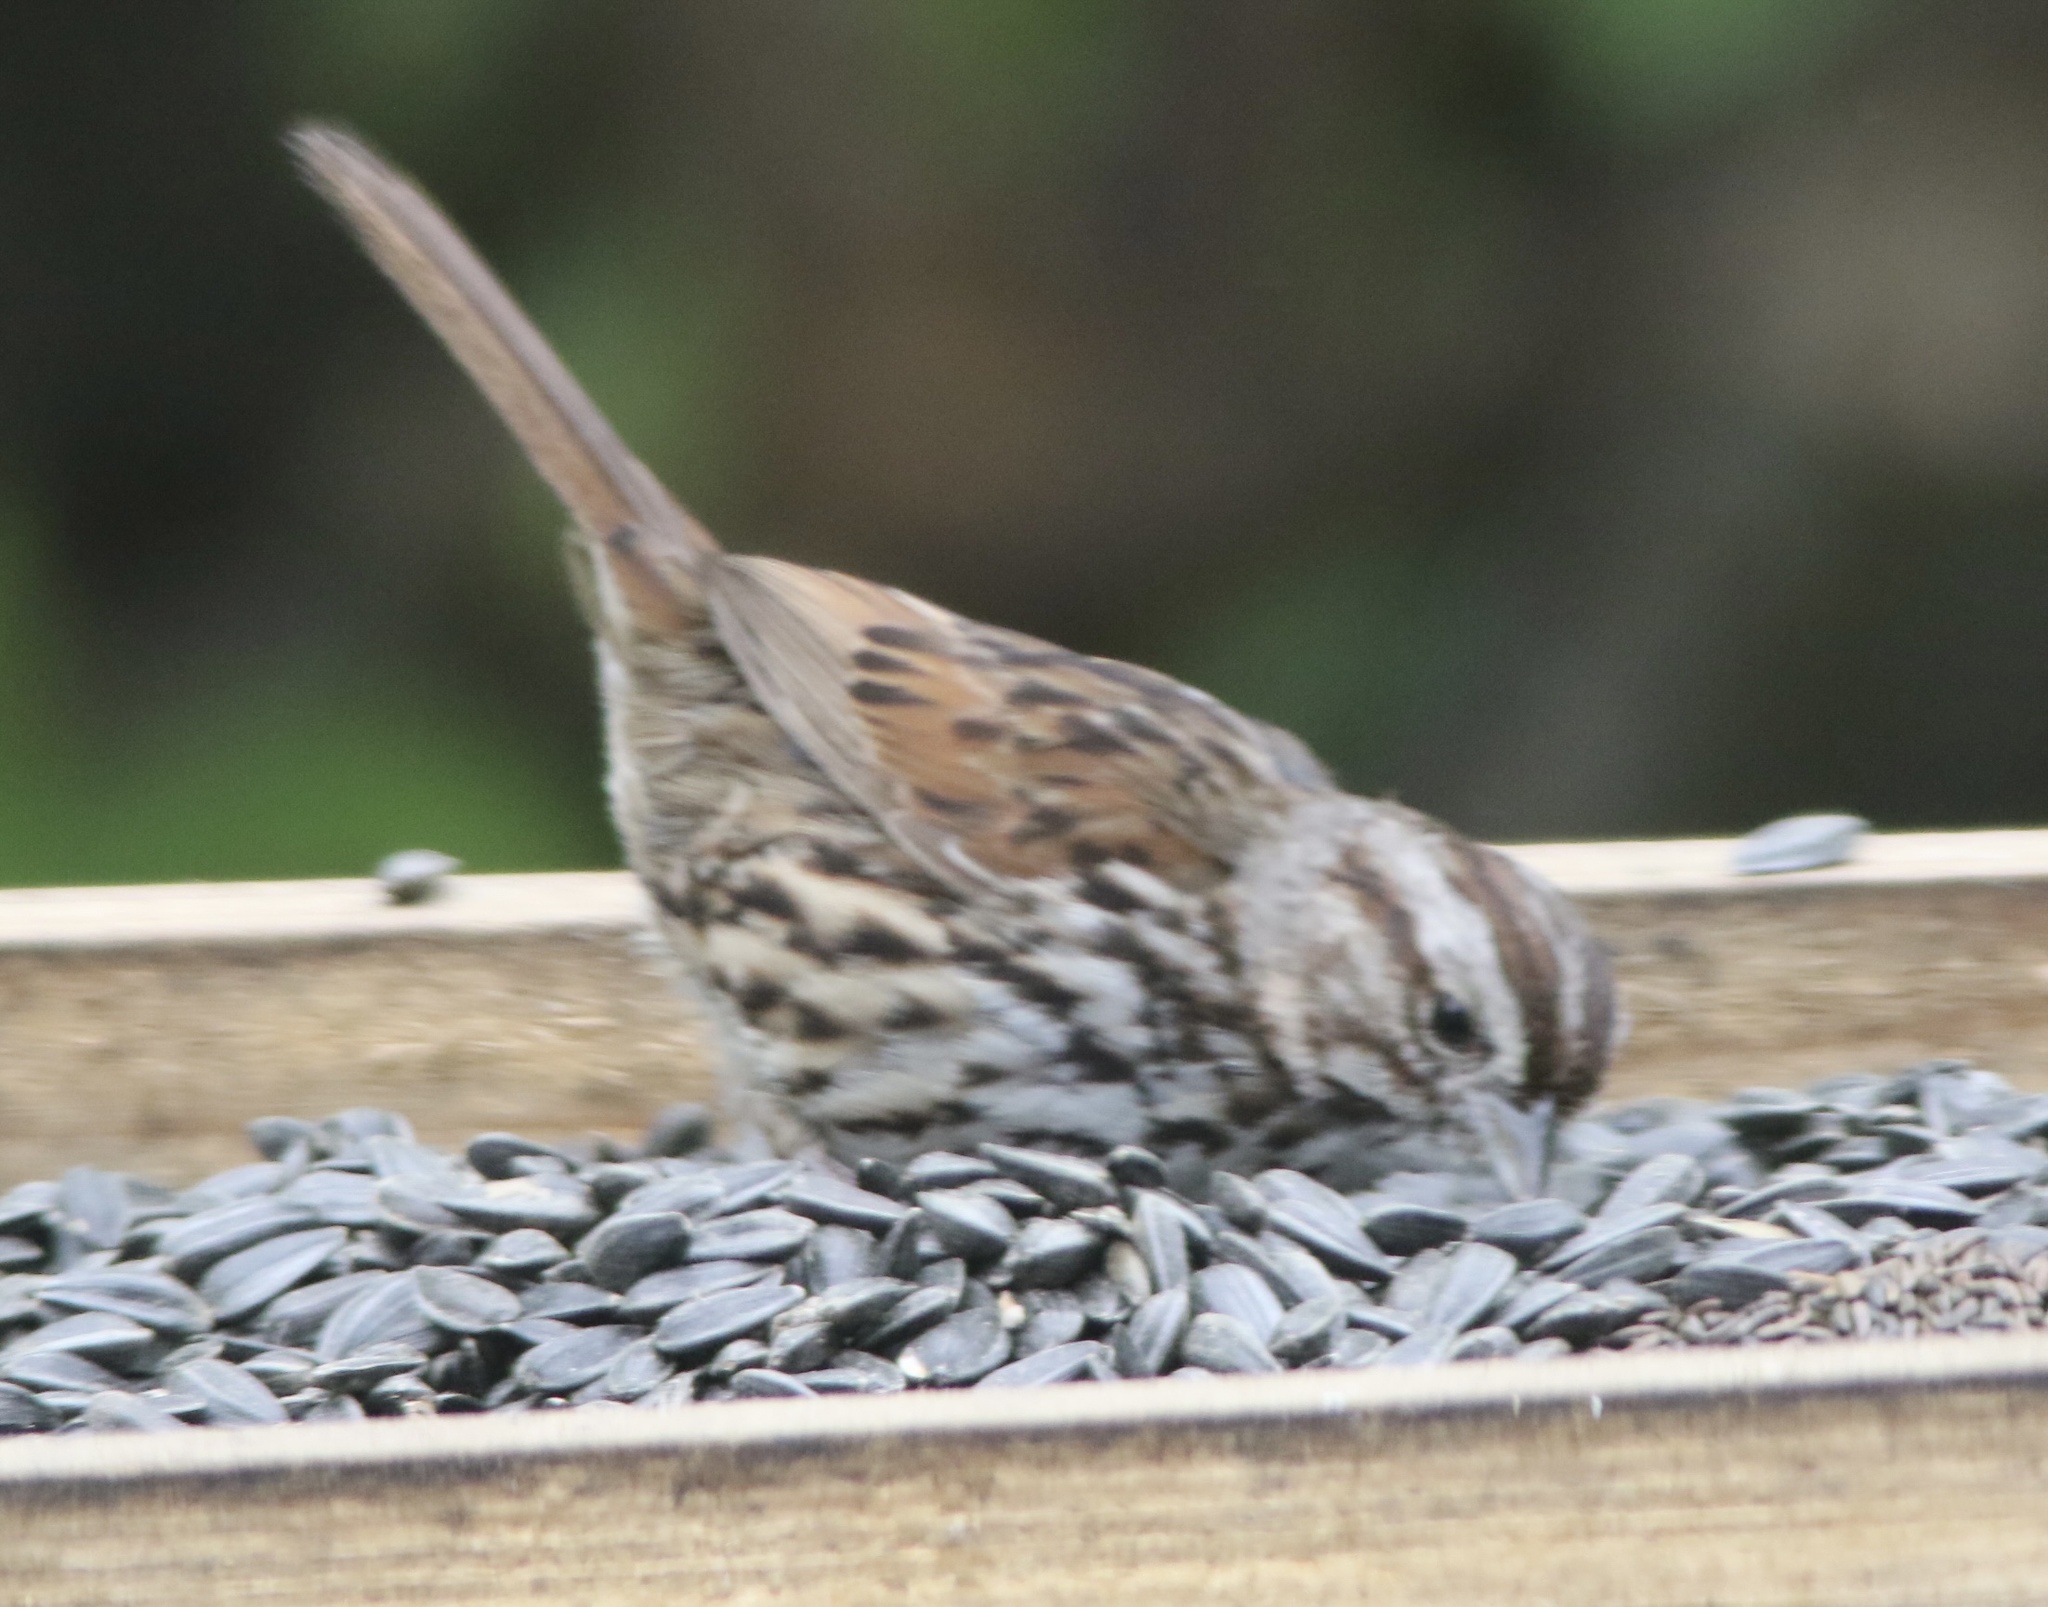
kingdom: Animalia
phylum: Chordata
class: Aves
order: Passeriformes
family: Passerellidae
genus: Melospiza
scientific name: Melospiza melodia
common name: Song sparrow
